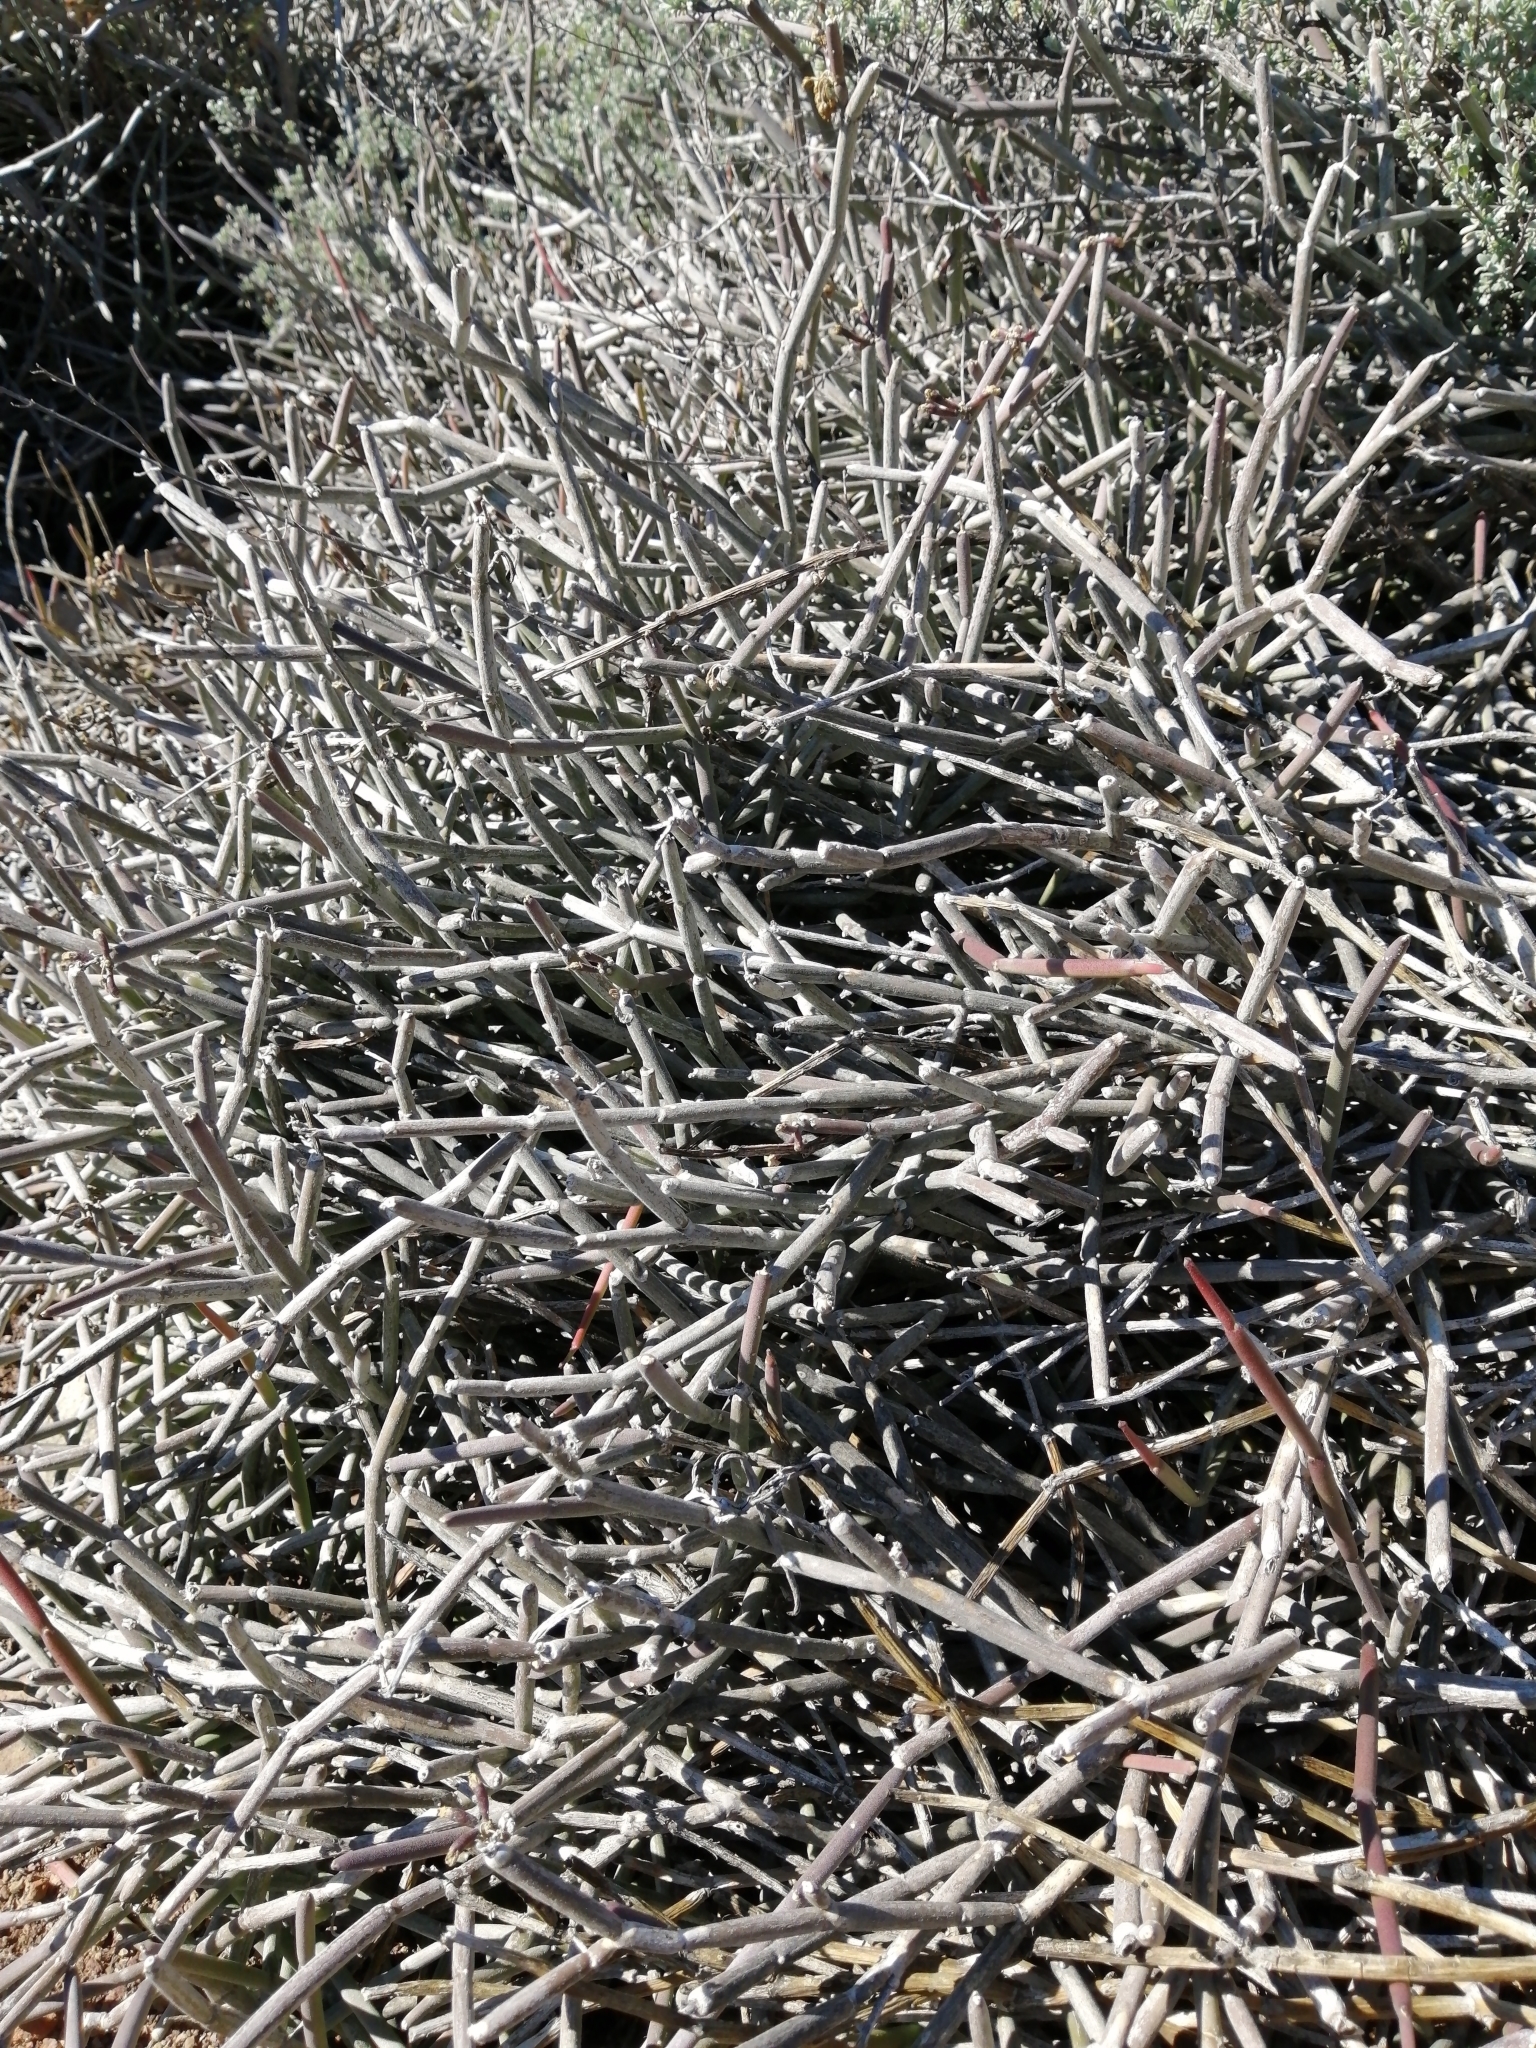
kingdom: Plantae
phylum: Tracheophyta
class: Magnoliopsida
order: Gentianales
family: Apocynaceae
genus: Cynanchum
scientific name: Cynanchum viminale
